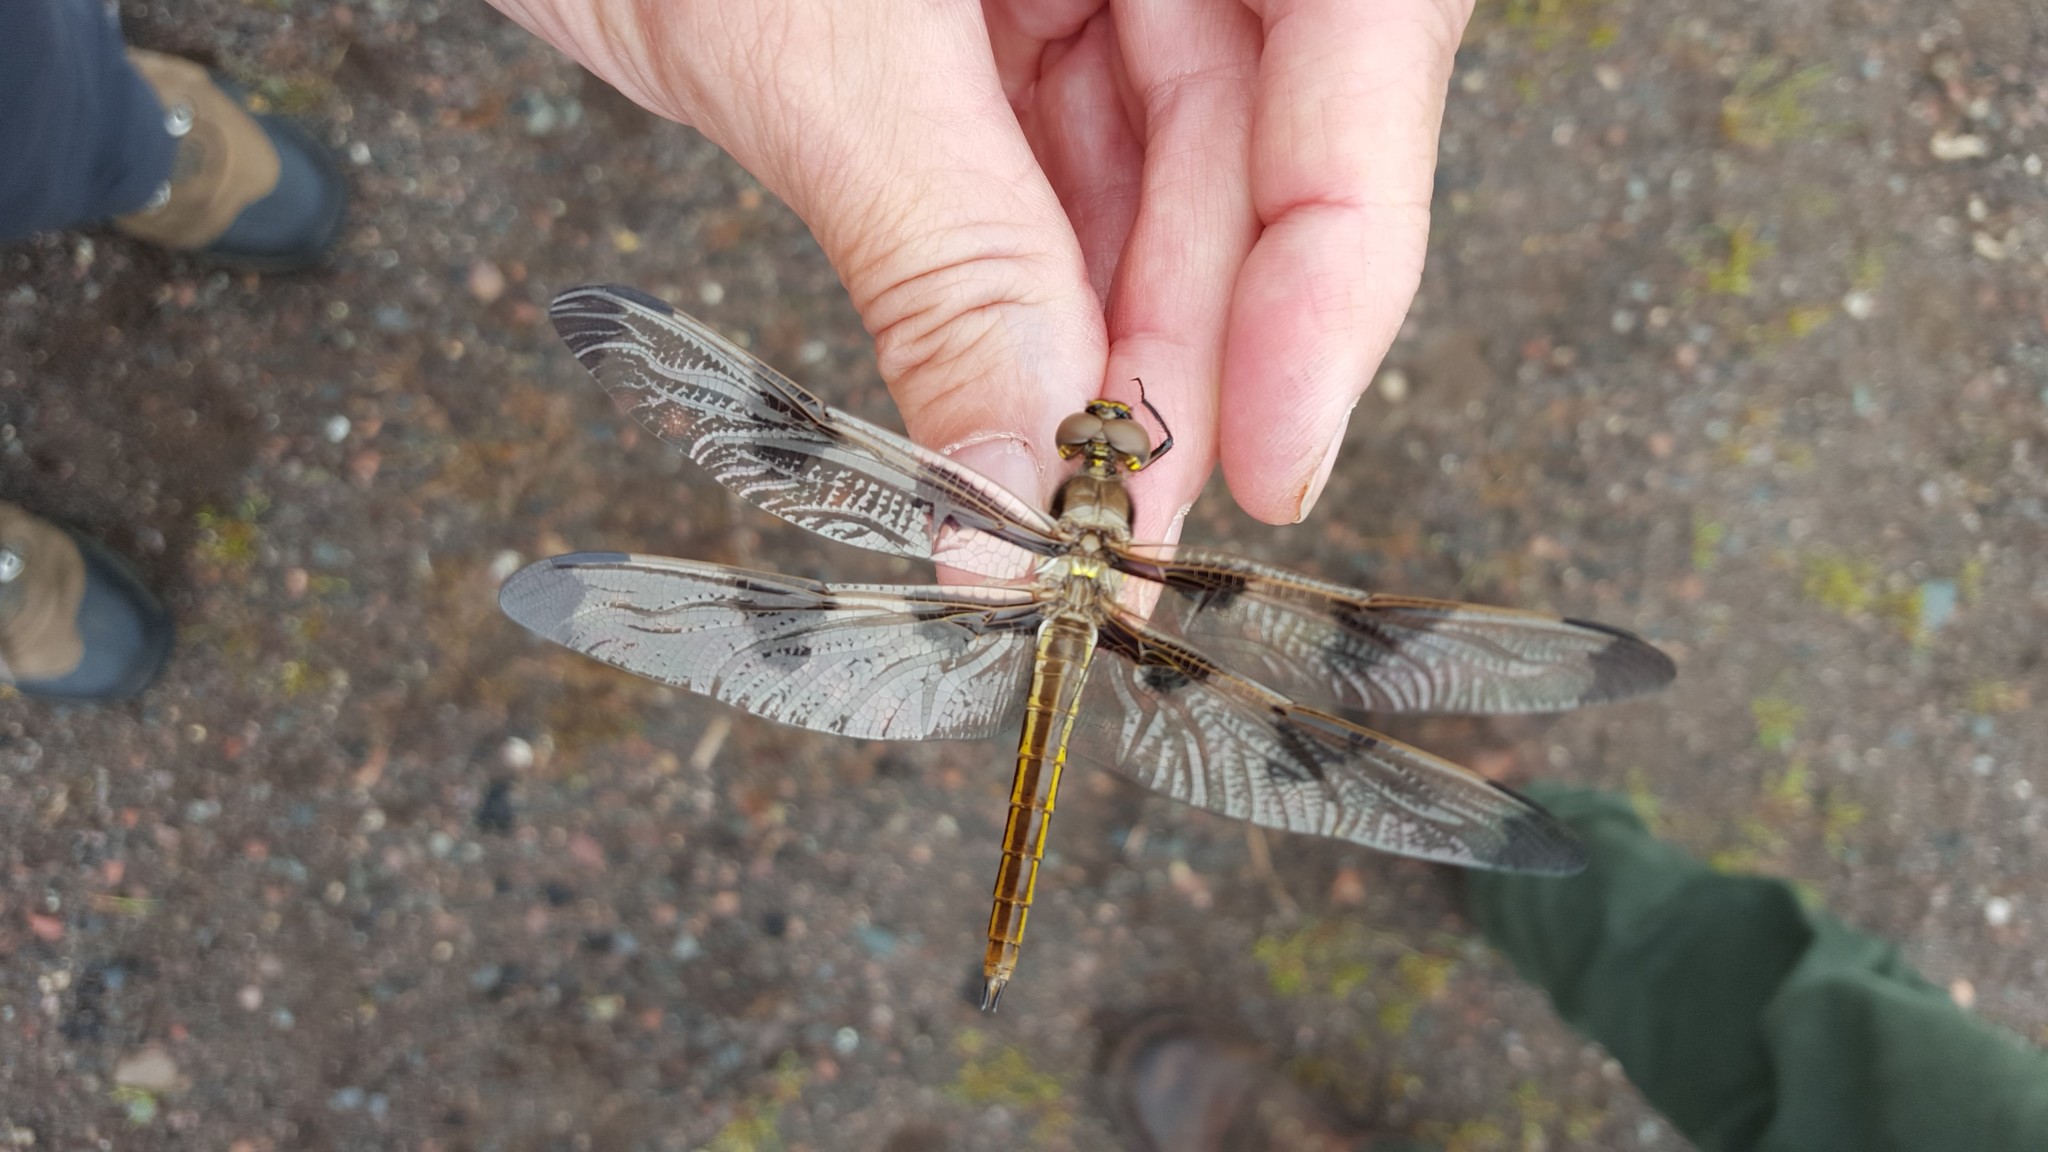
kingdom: Animalia
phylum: Arthropoda
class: Insecta
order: Odonata
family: Libellulidae
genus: Libellula
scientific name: Libellula pulchella
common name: Twelve-spotted skimmer
